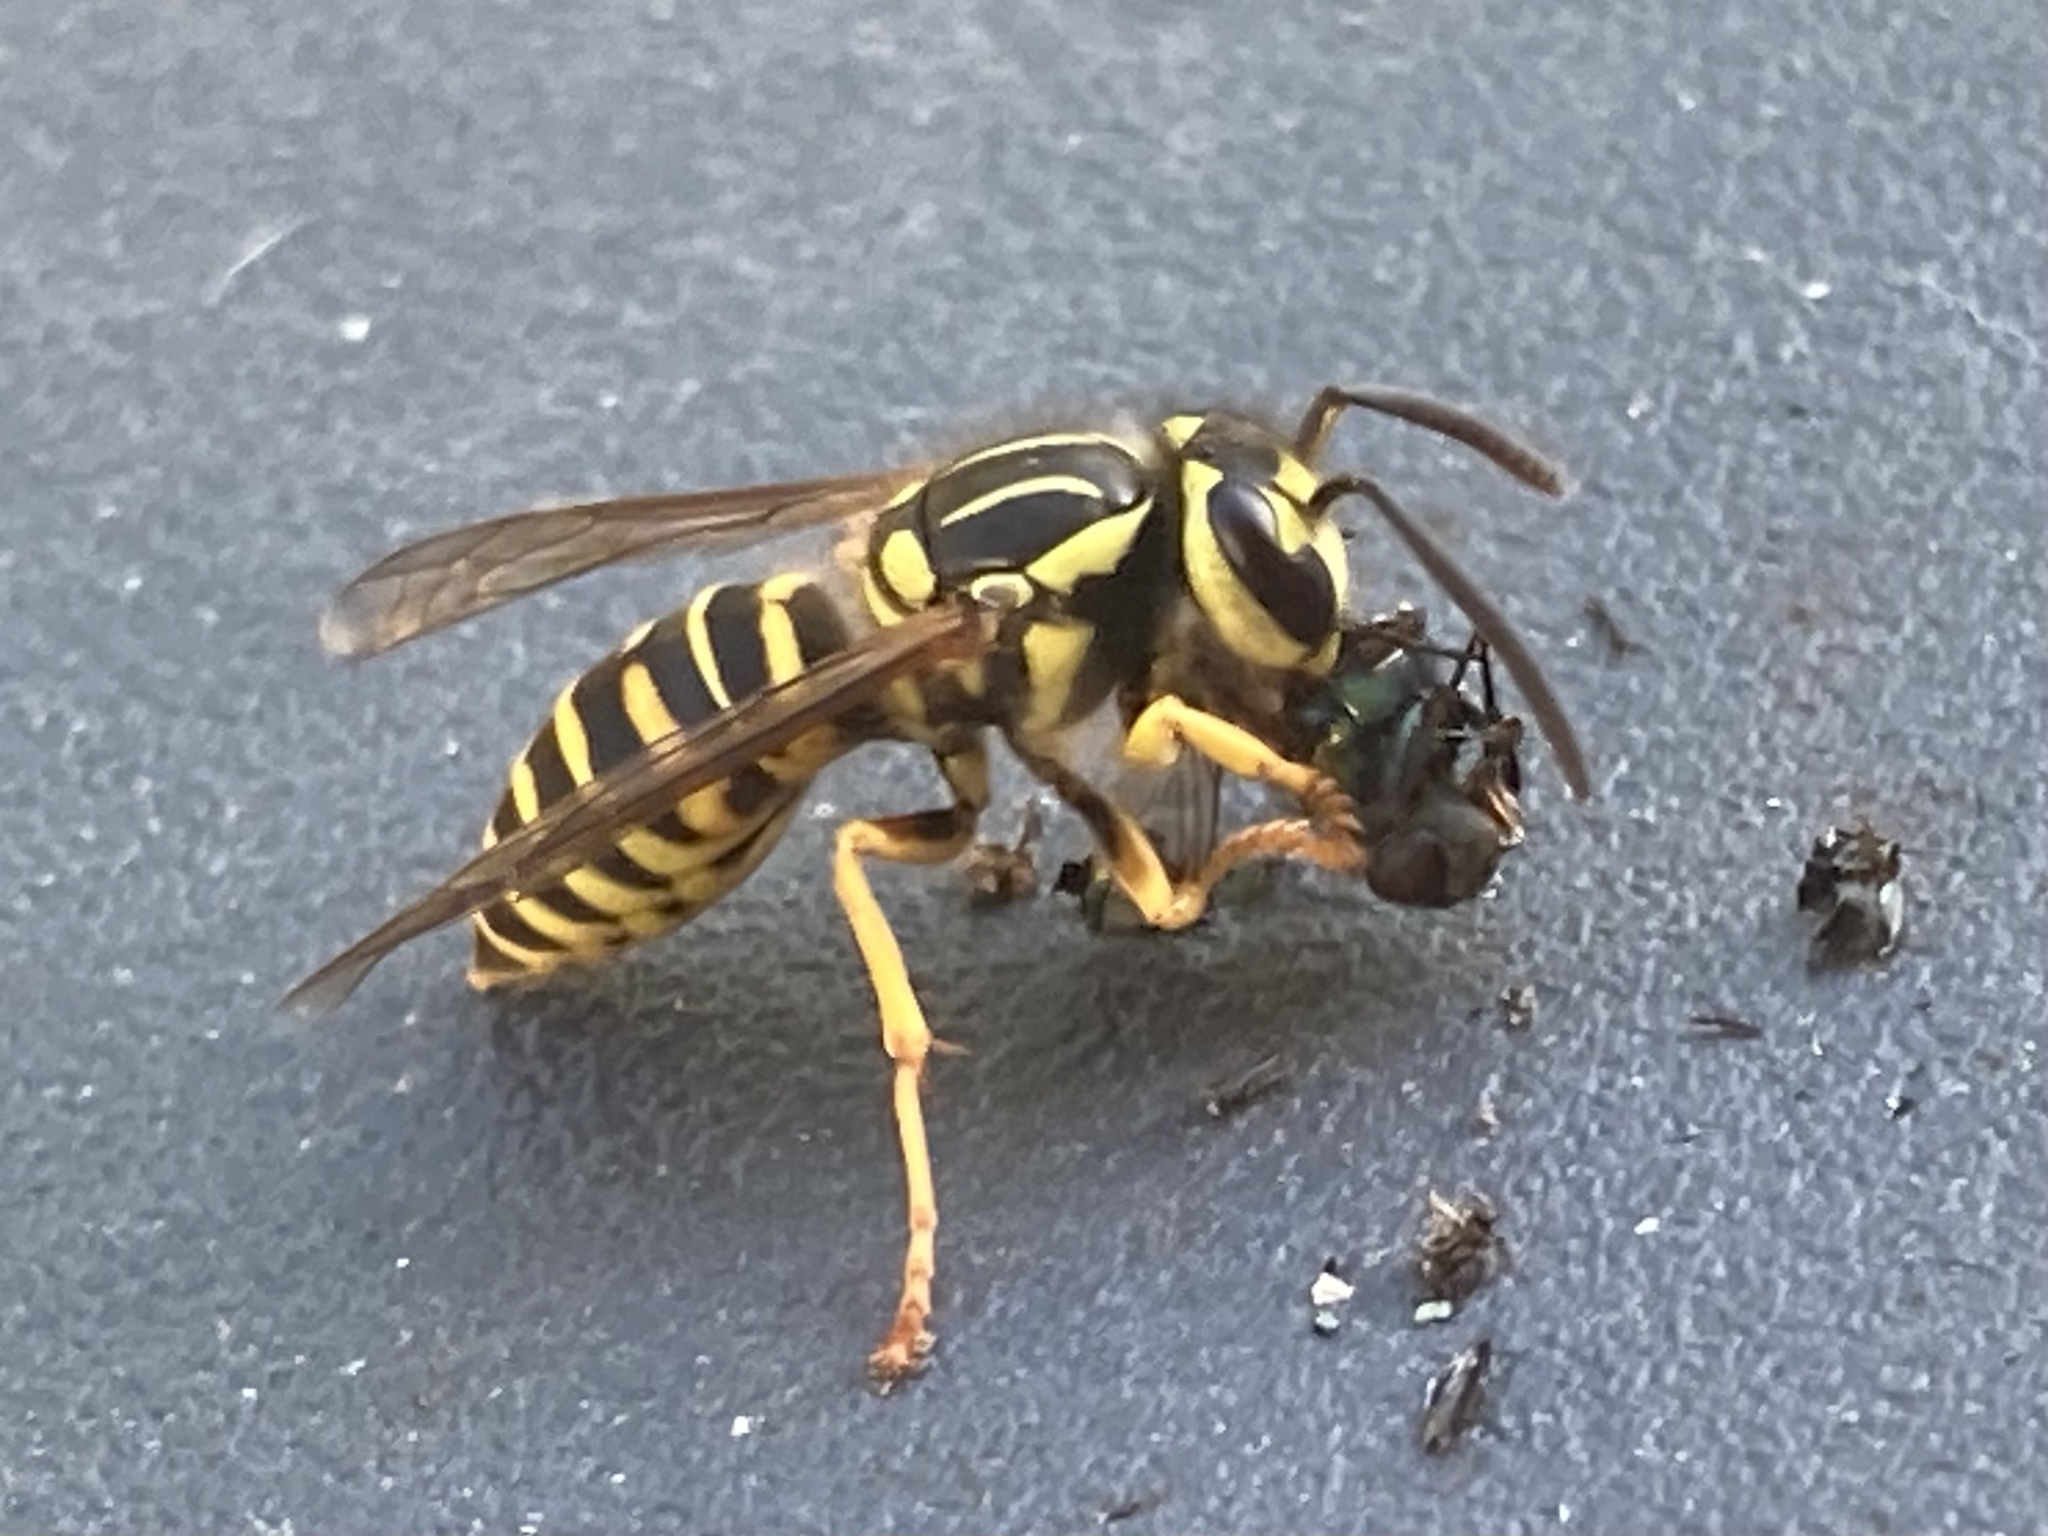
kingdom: Animalia
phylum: Arthropoda
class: Insecta
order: Hymenoptera
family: Vespidae
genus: Vespula
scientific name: Vespula squamosa
